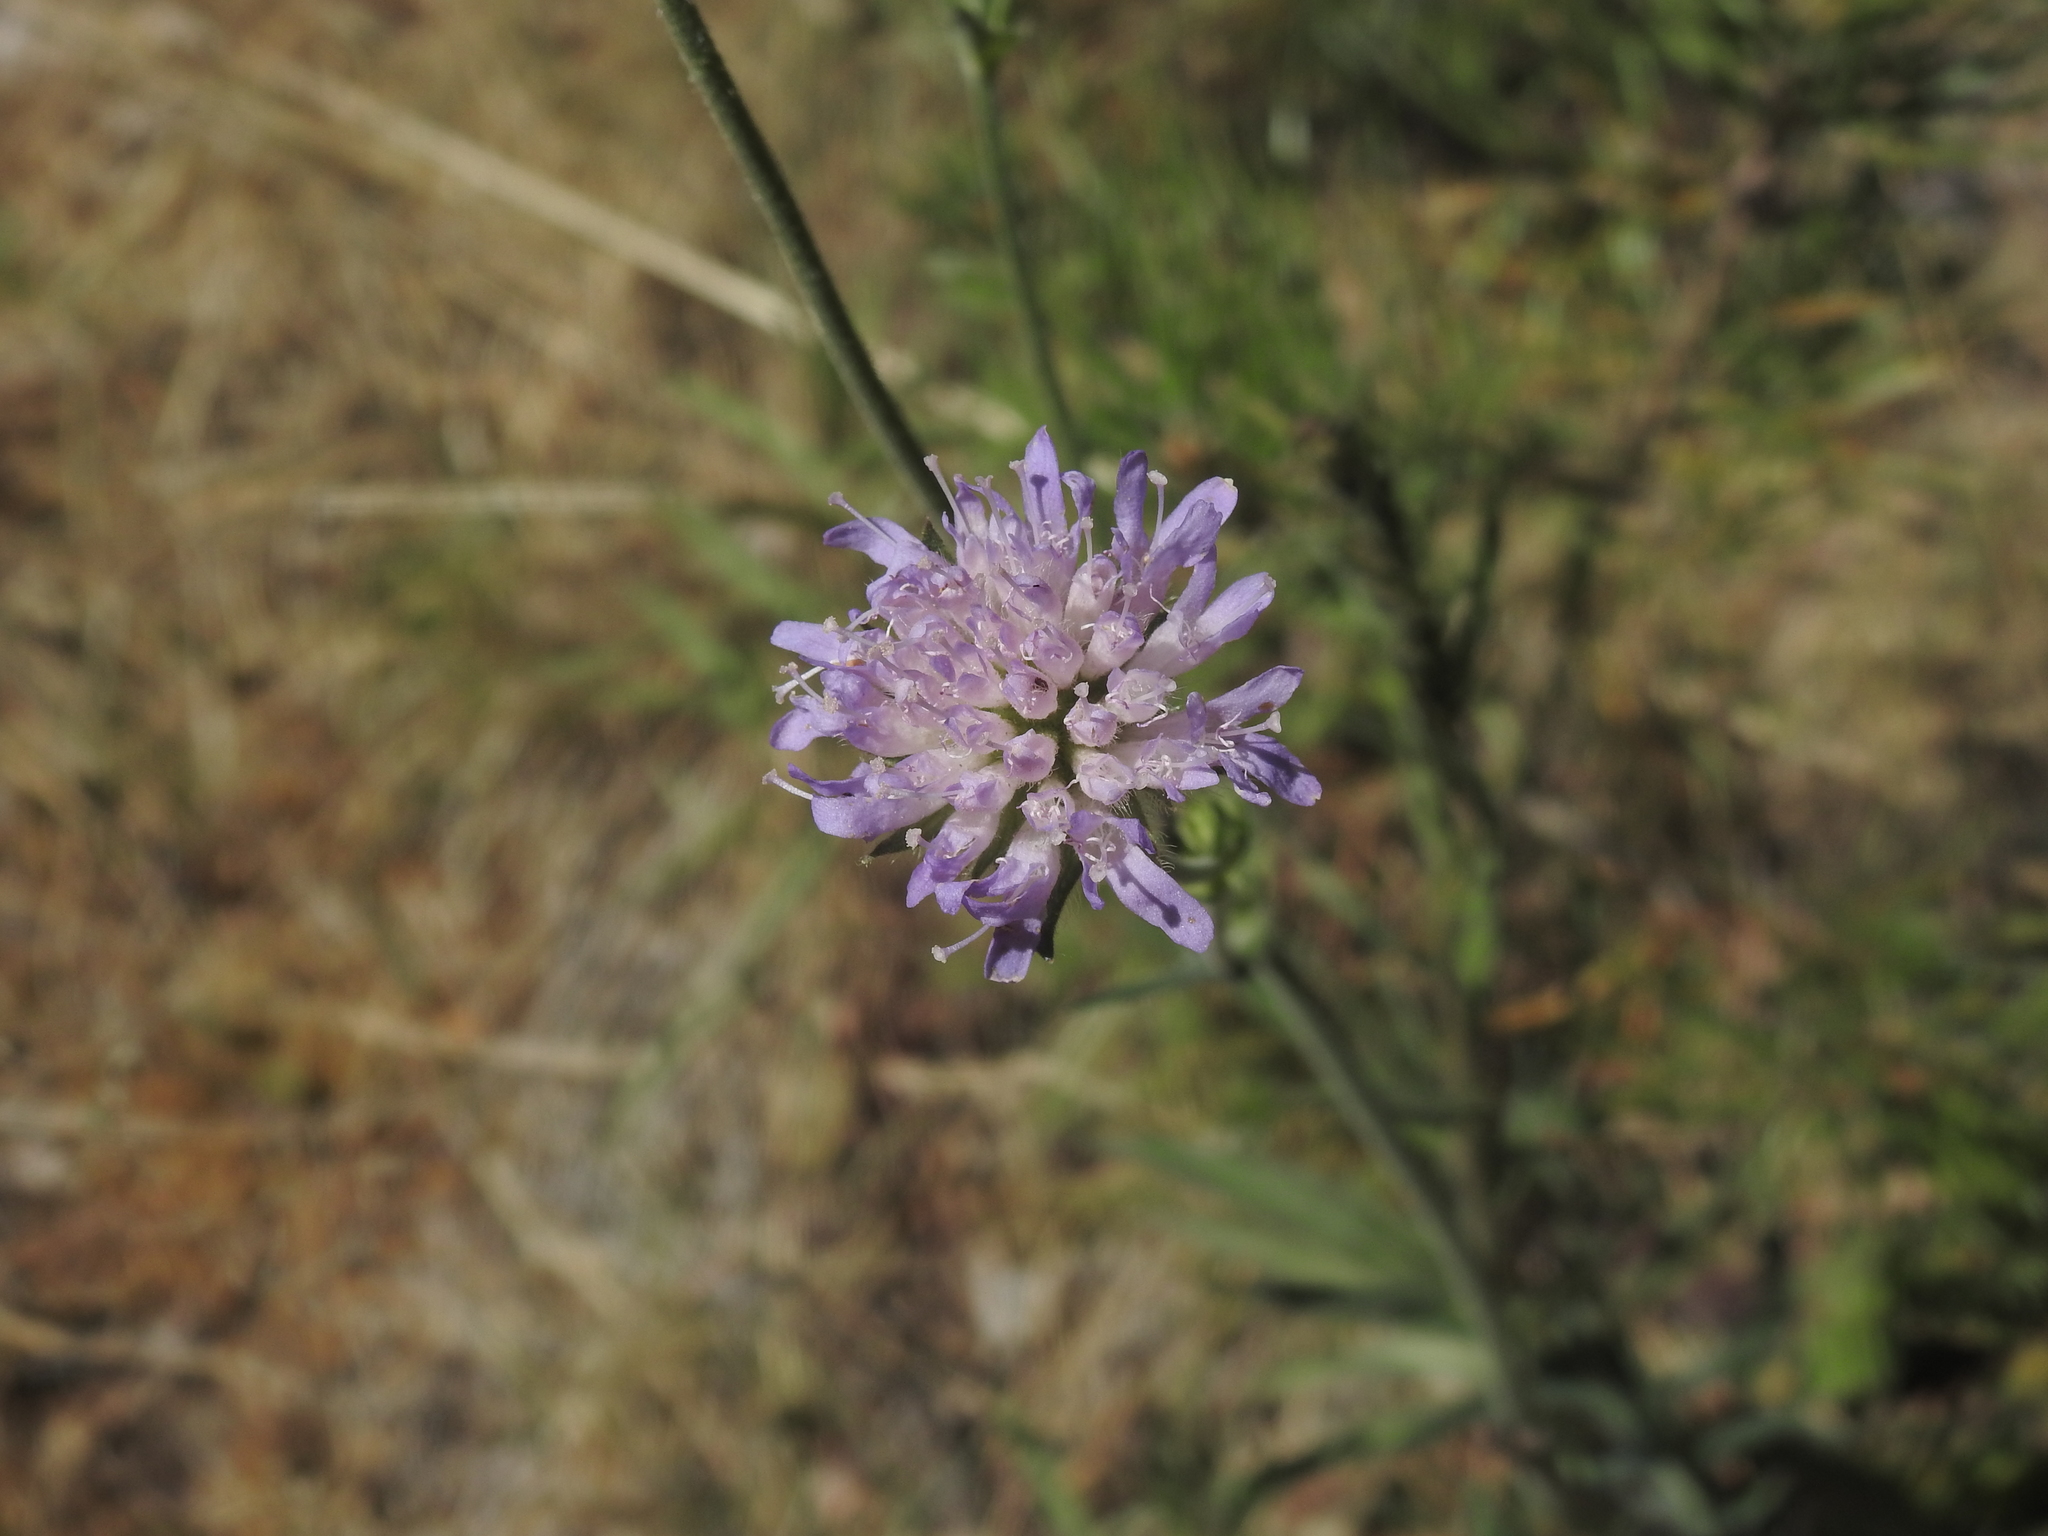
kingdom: Plantae
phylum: Tracheophyta
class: Magnoliopsida
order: Dipsacales
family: Caprifoliaceae
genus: Knautia
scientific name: Knautia arvensis
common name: Field scabiosa
